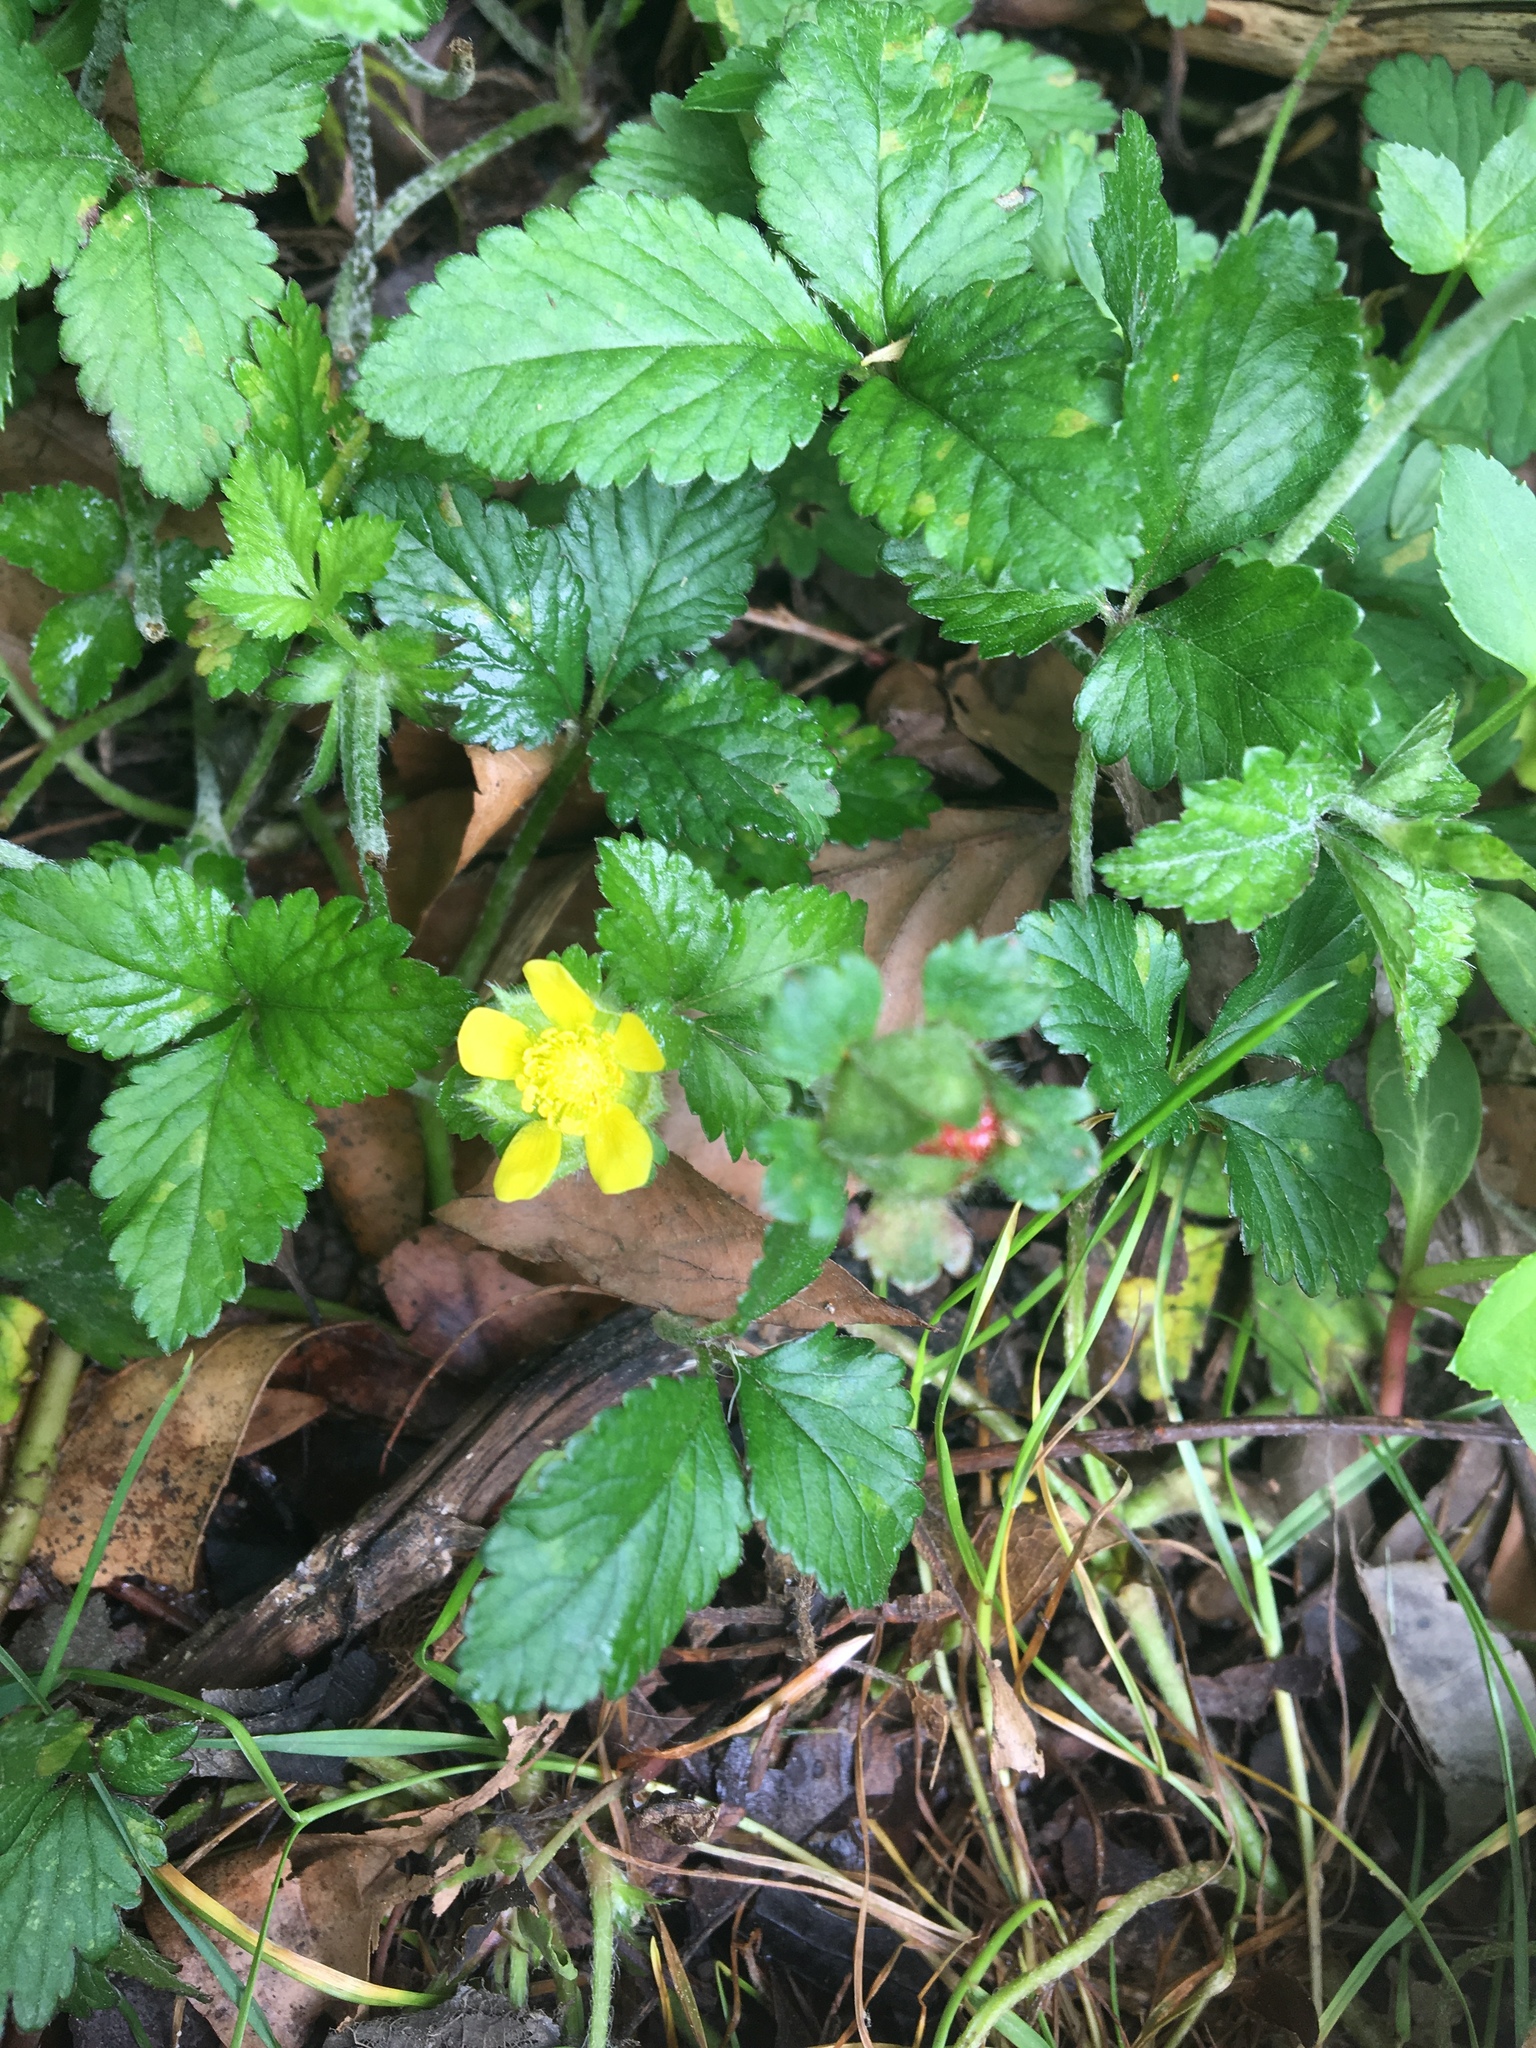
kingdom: Plantae
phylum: Tracheophyta
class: Magnoliopsida
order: Rosales
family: Rosaceae
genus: Potentilla
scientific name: Potentilla indica
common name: Yellow-flowered strawberry
